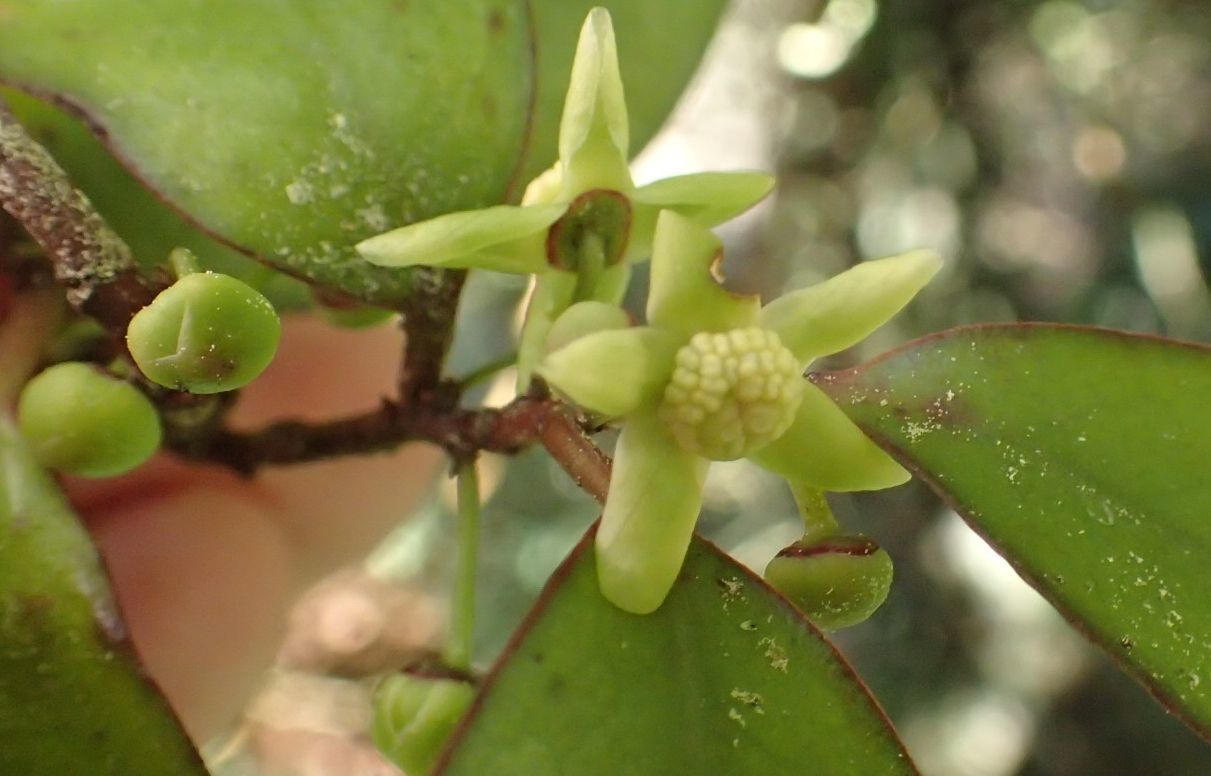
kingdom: Plantae
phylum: Tracheophyta
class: Magnoliopsida
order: Canellales
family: Winteraceae
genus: Pseudowintera
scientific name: Pseudowintera colorata
